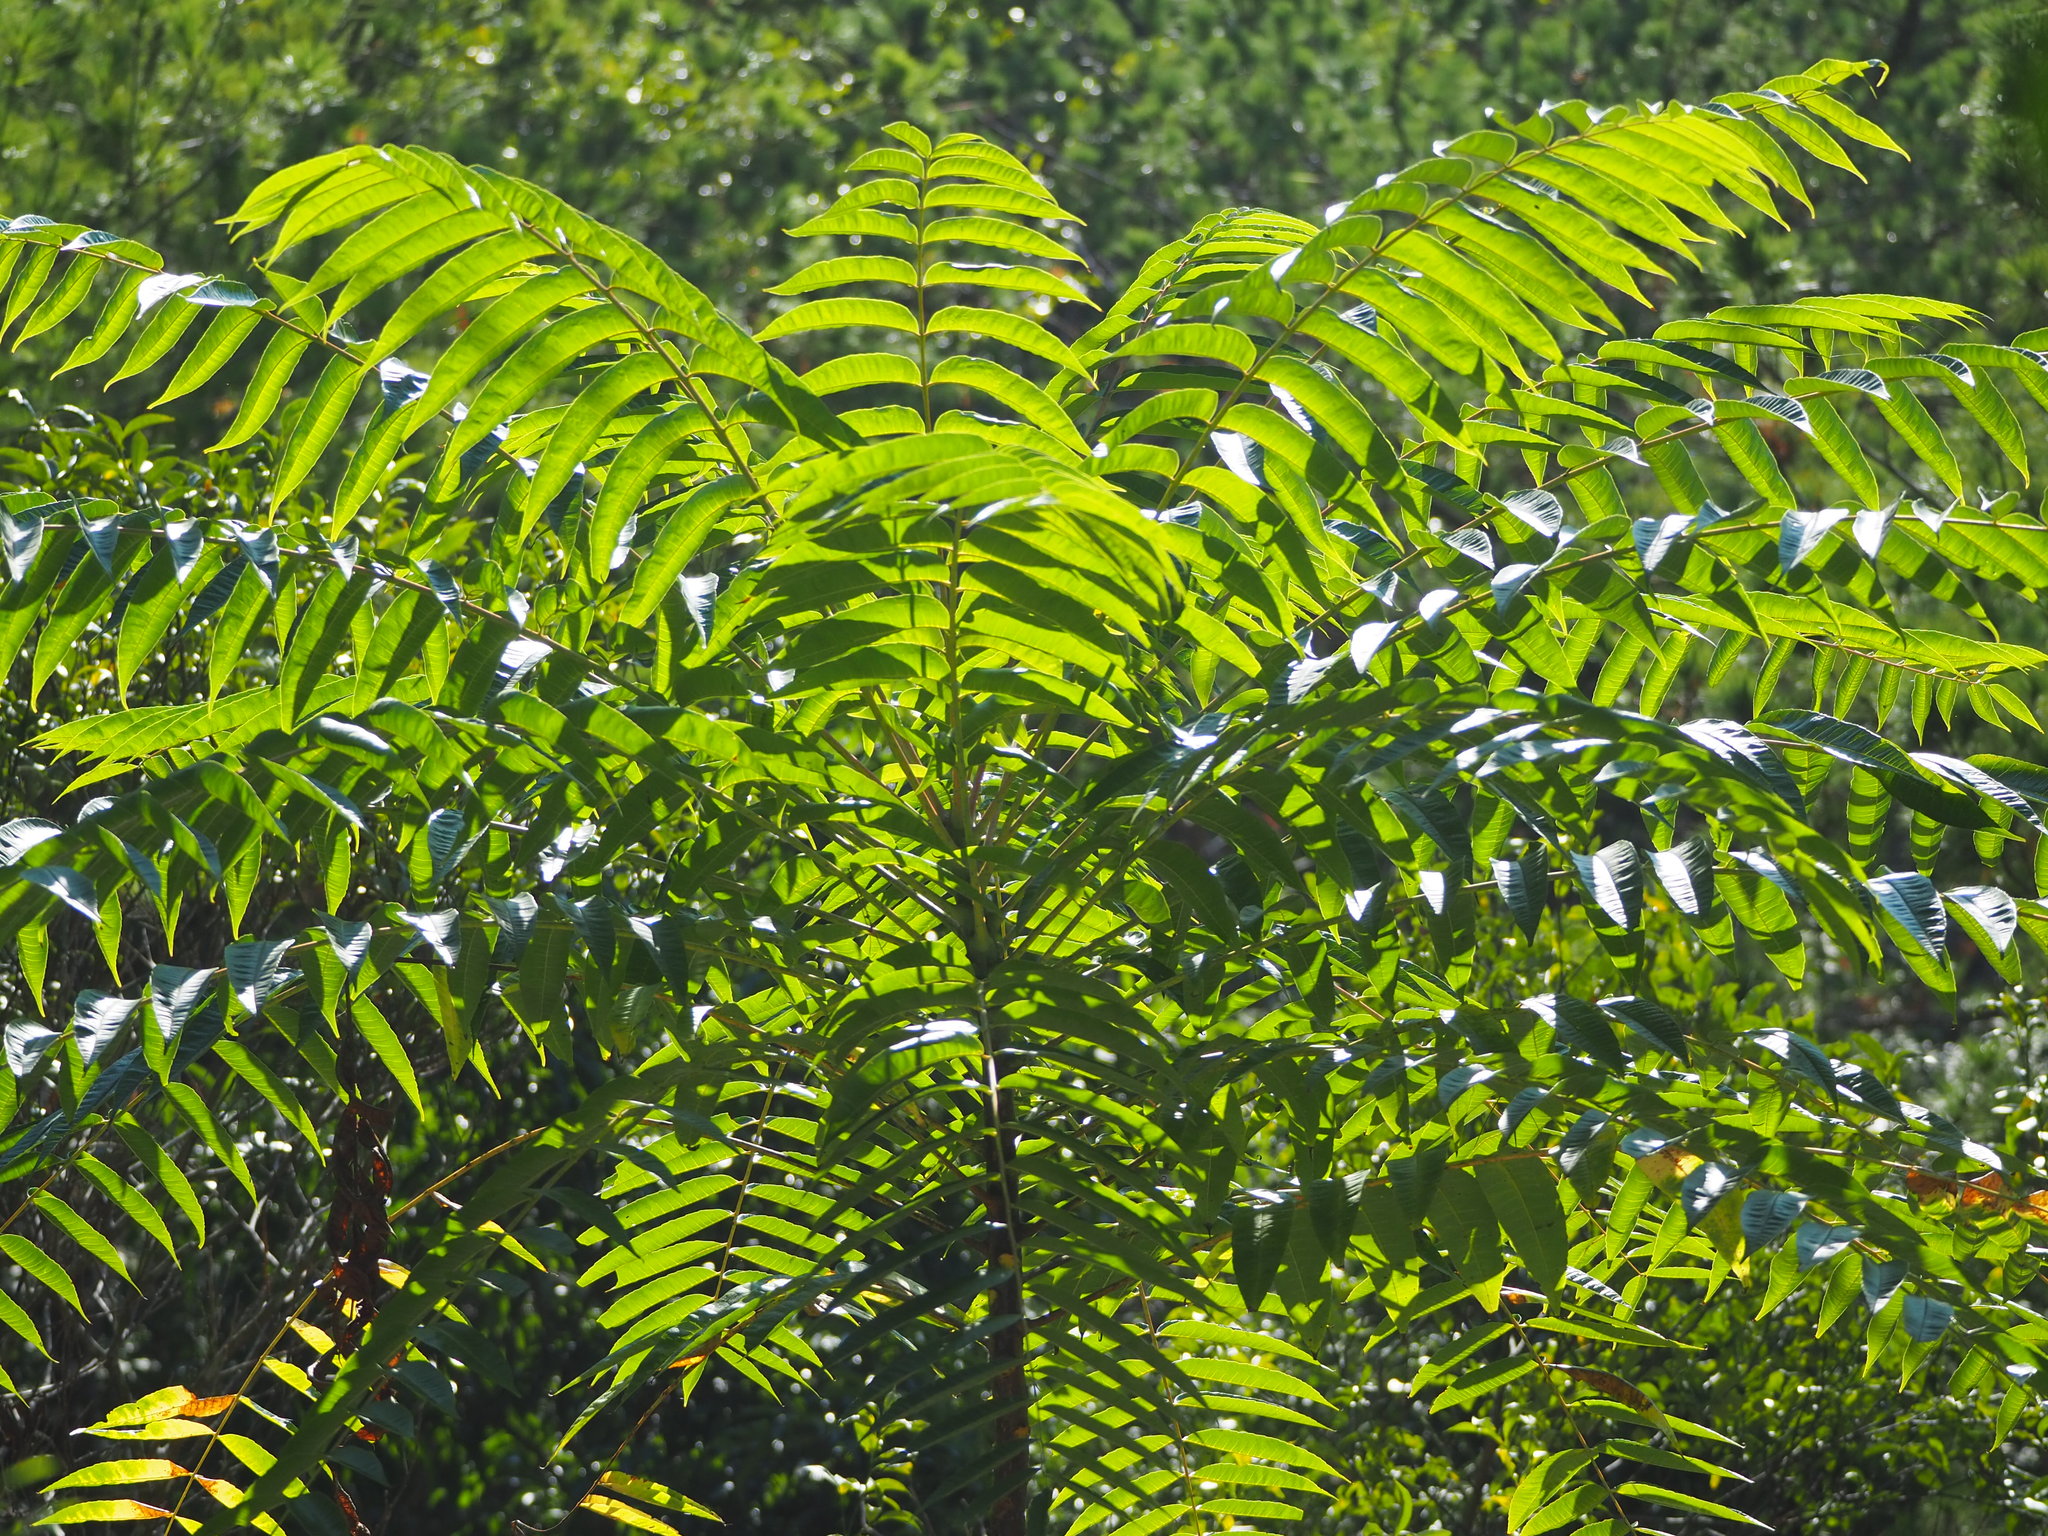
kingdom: Plantae
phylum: Tracheophyta
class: Magnoliopsida
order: Sapindales
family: Rutaceae
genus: Zanthoxylum
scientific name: Zanthoxylum ailanthoides
